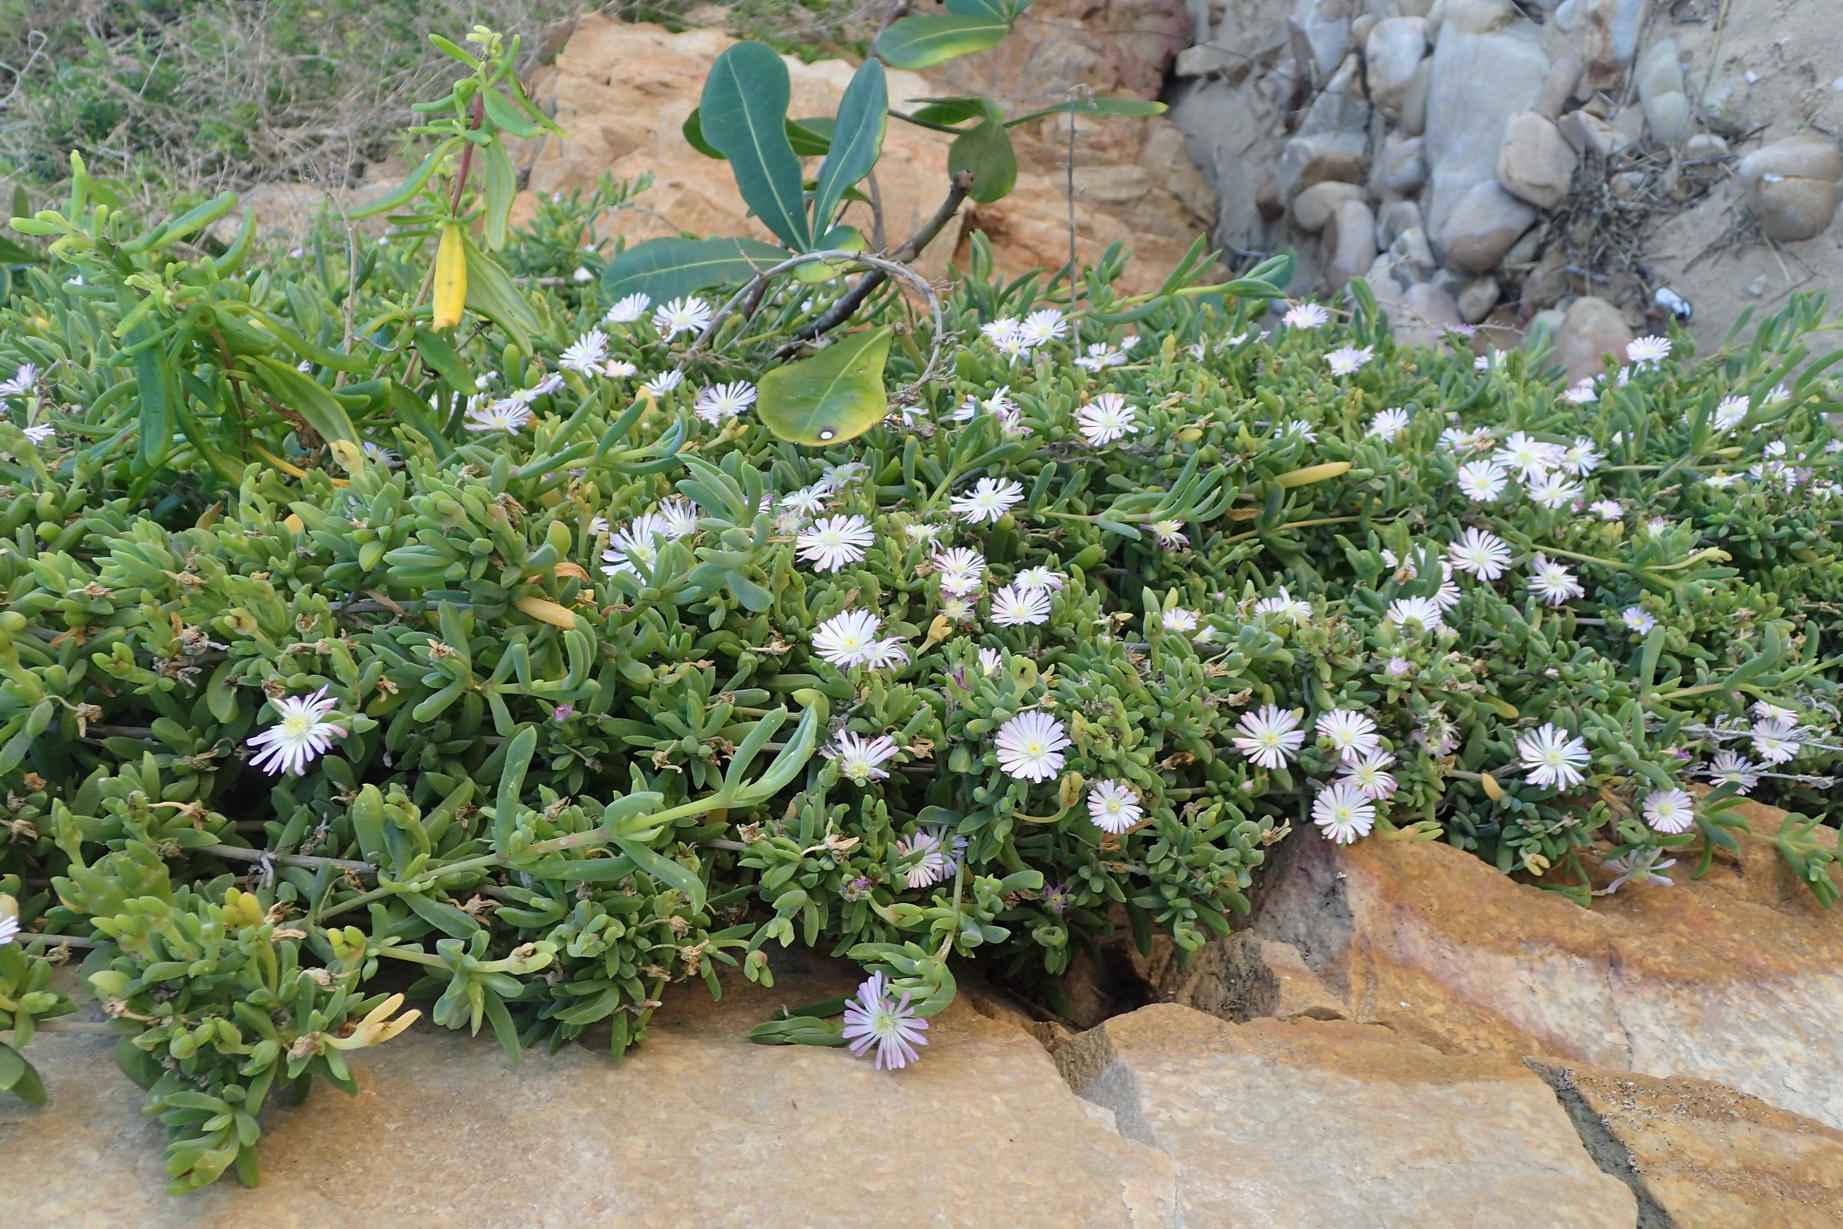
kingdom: Plantae
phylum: Tracheophyta
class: Magnoliopsida
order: Caryophyllales
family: Aizoaceae
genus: Delosperma
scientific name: Delosperma patersoniae
